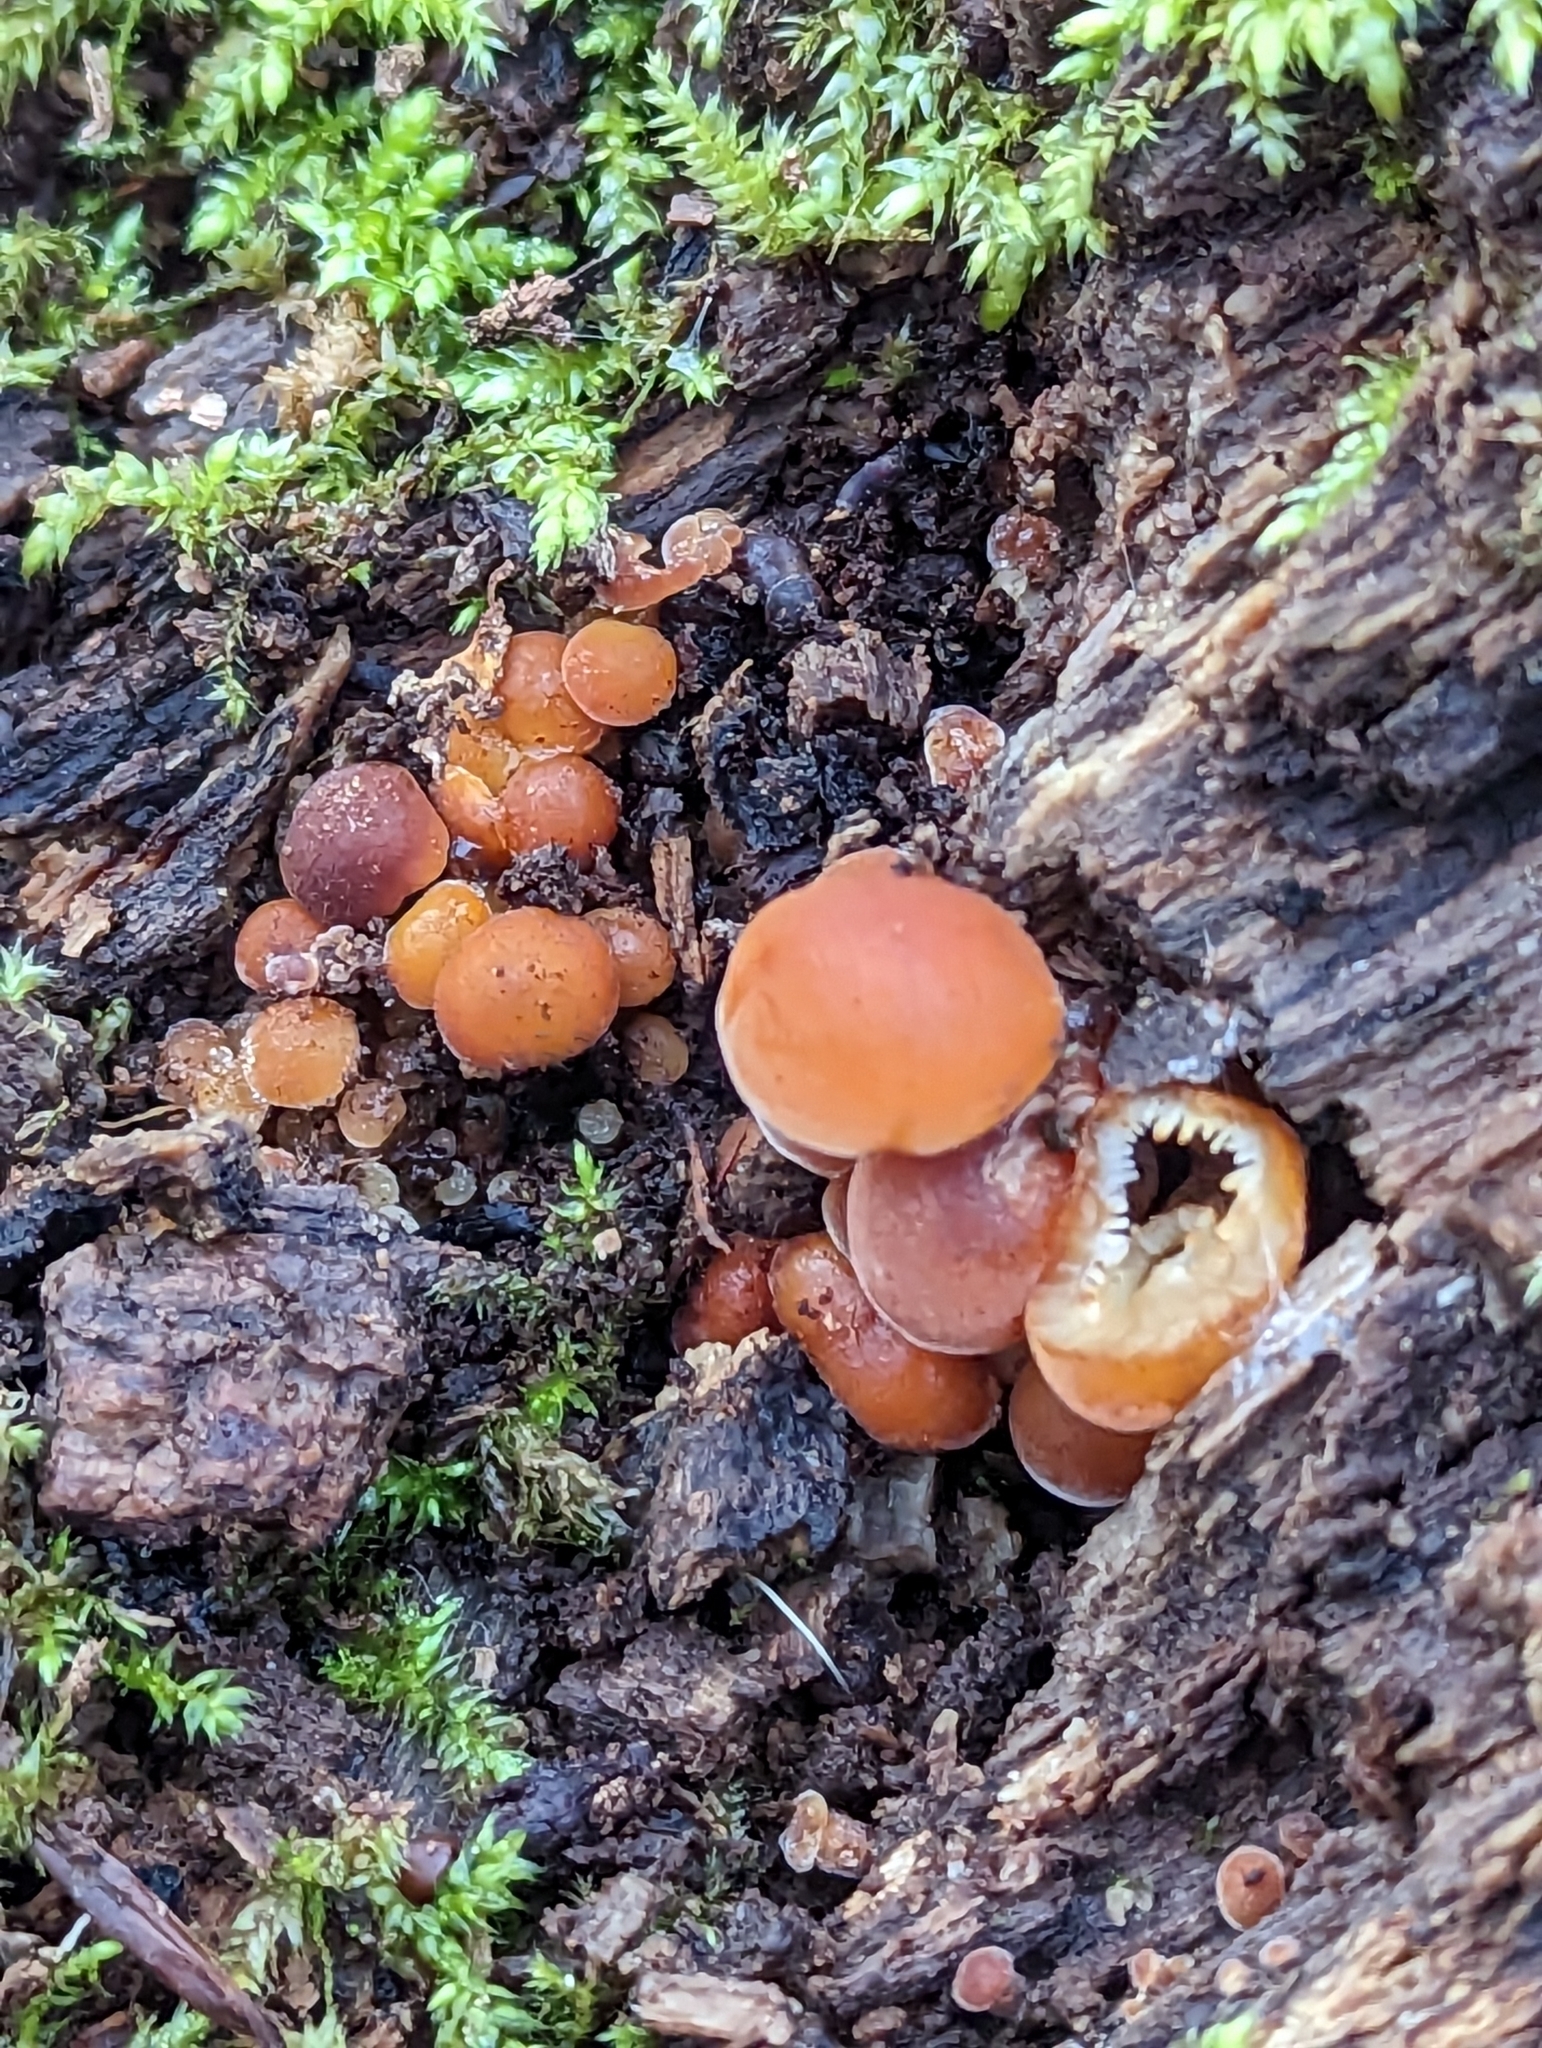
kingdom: Fungi
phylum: Basidiomycota
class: Agaricomycetes
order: Agaricales
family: Physalacriaceae
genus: Flammulina
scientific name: Flammulina
